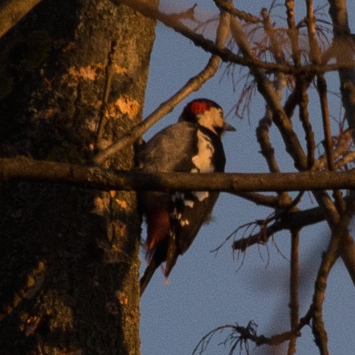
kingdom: Animalia
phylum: Chordata
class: Aves
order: Piciformes
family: Picidae
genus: Dendrocopos
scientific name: Dendrocopos syriacus
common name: Syrian woodpecker
